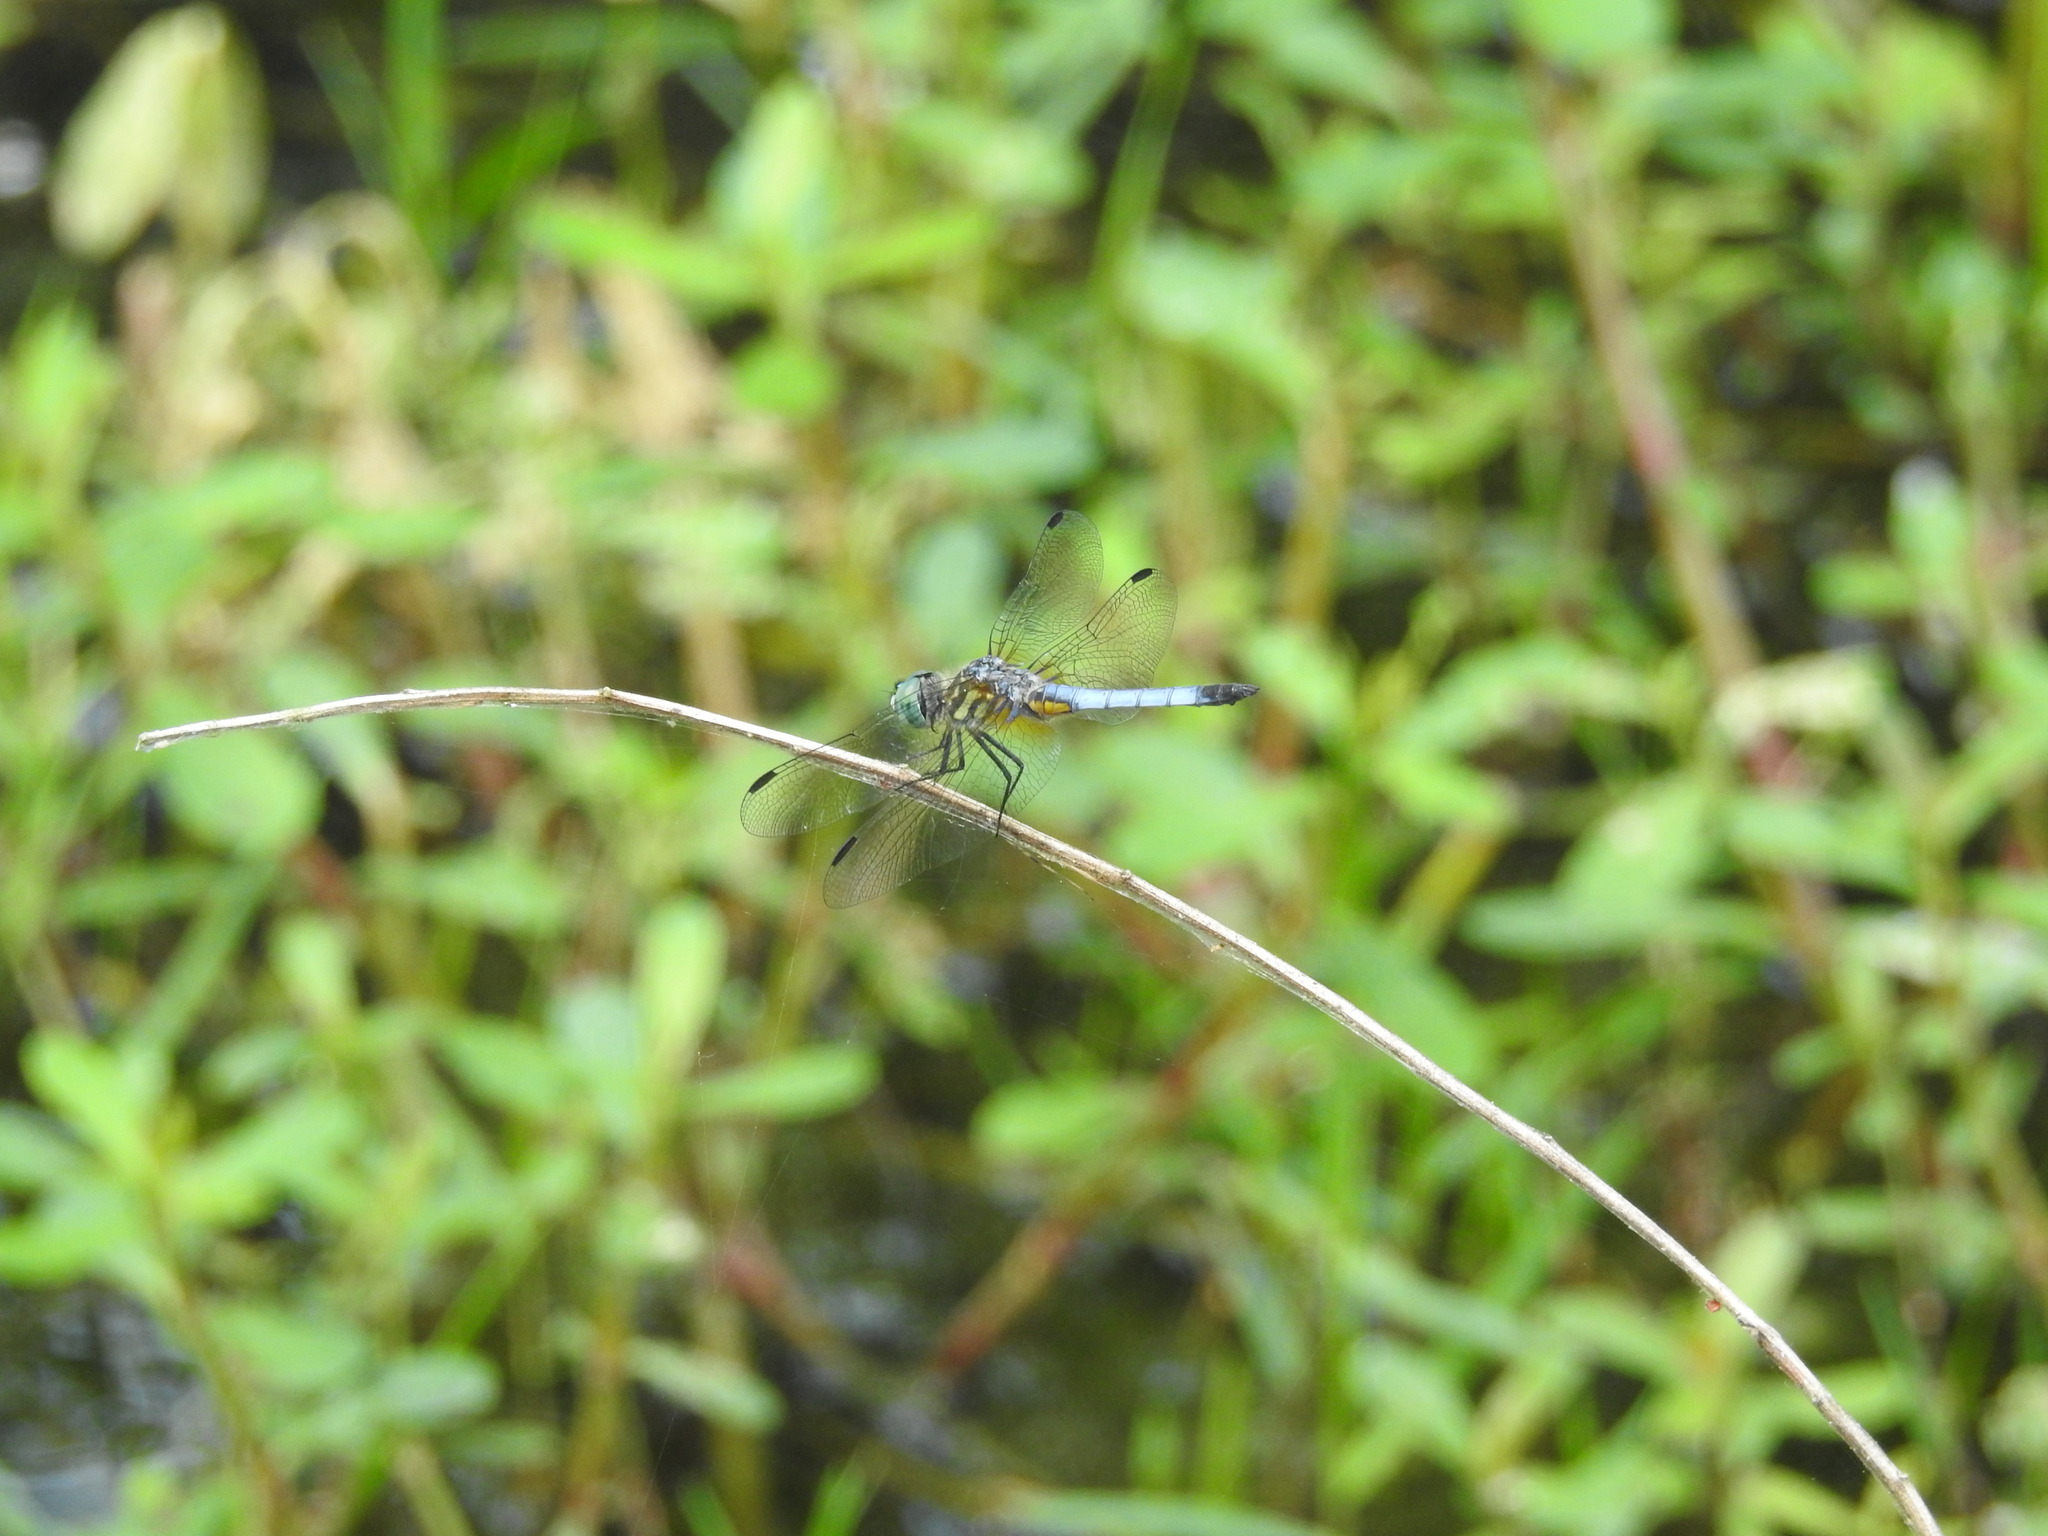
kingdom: Animalia
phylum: Arthropoda
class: Insecta
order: Odonata
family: Libellulidae
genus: Pachydiplax
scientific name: Pachydiplax longipennis
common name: Blue dasher
